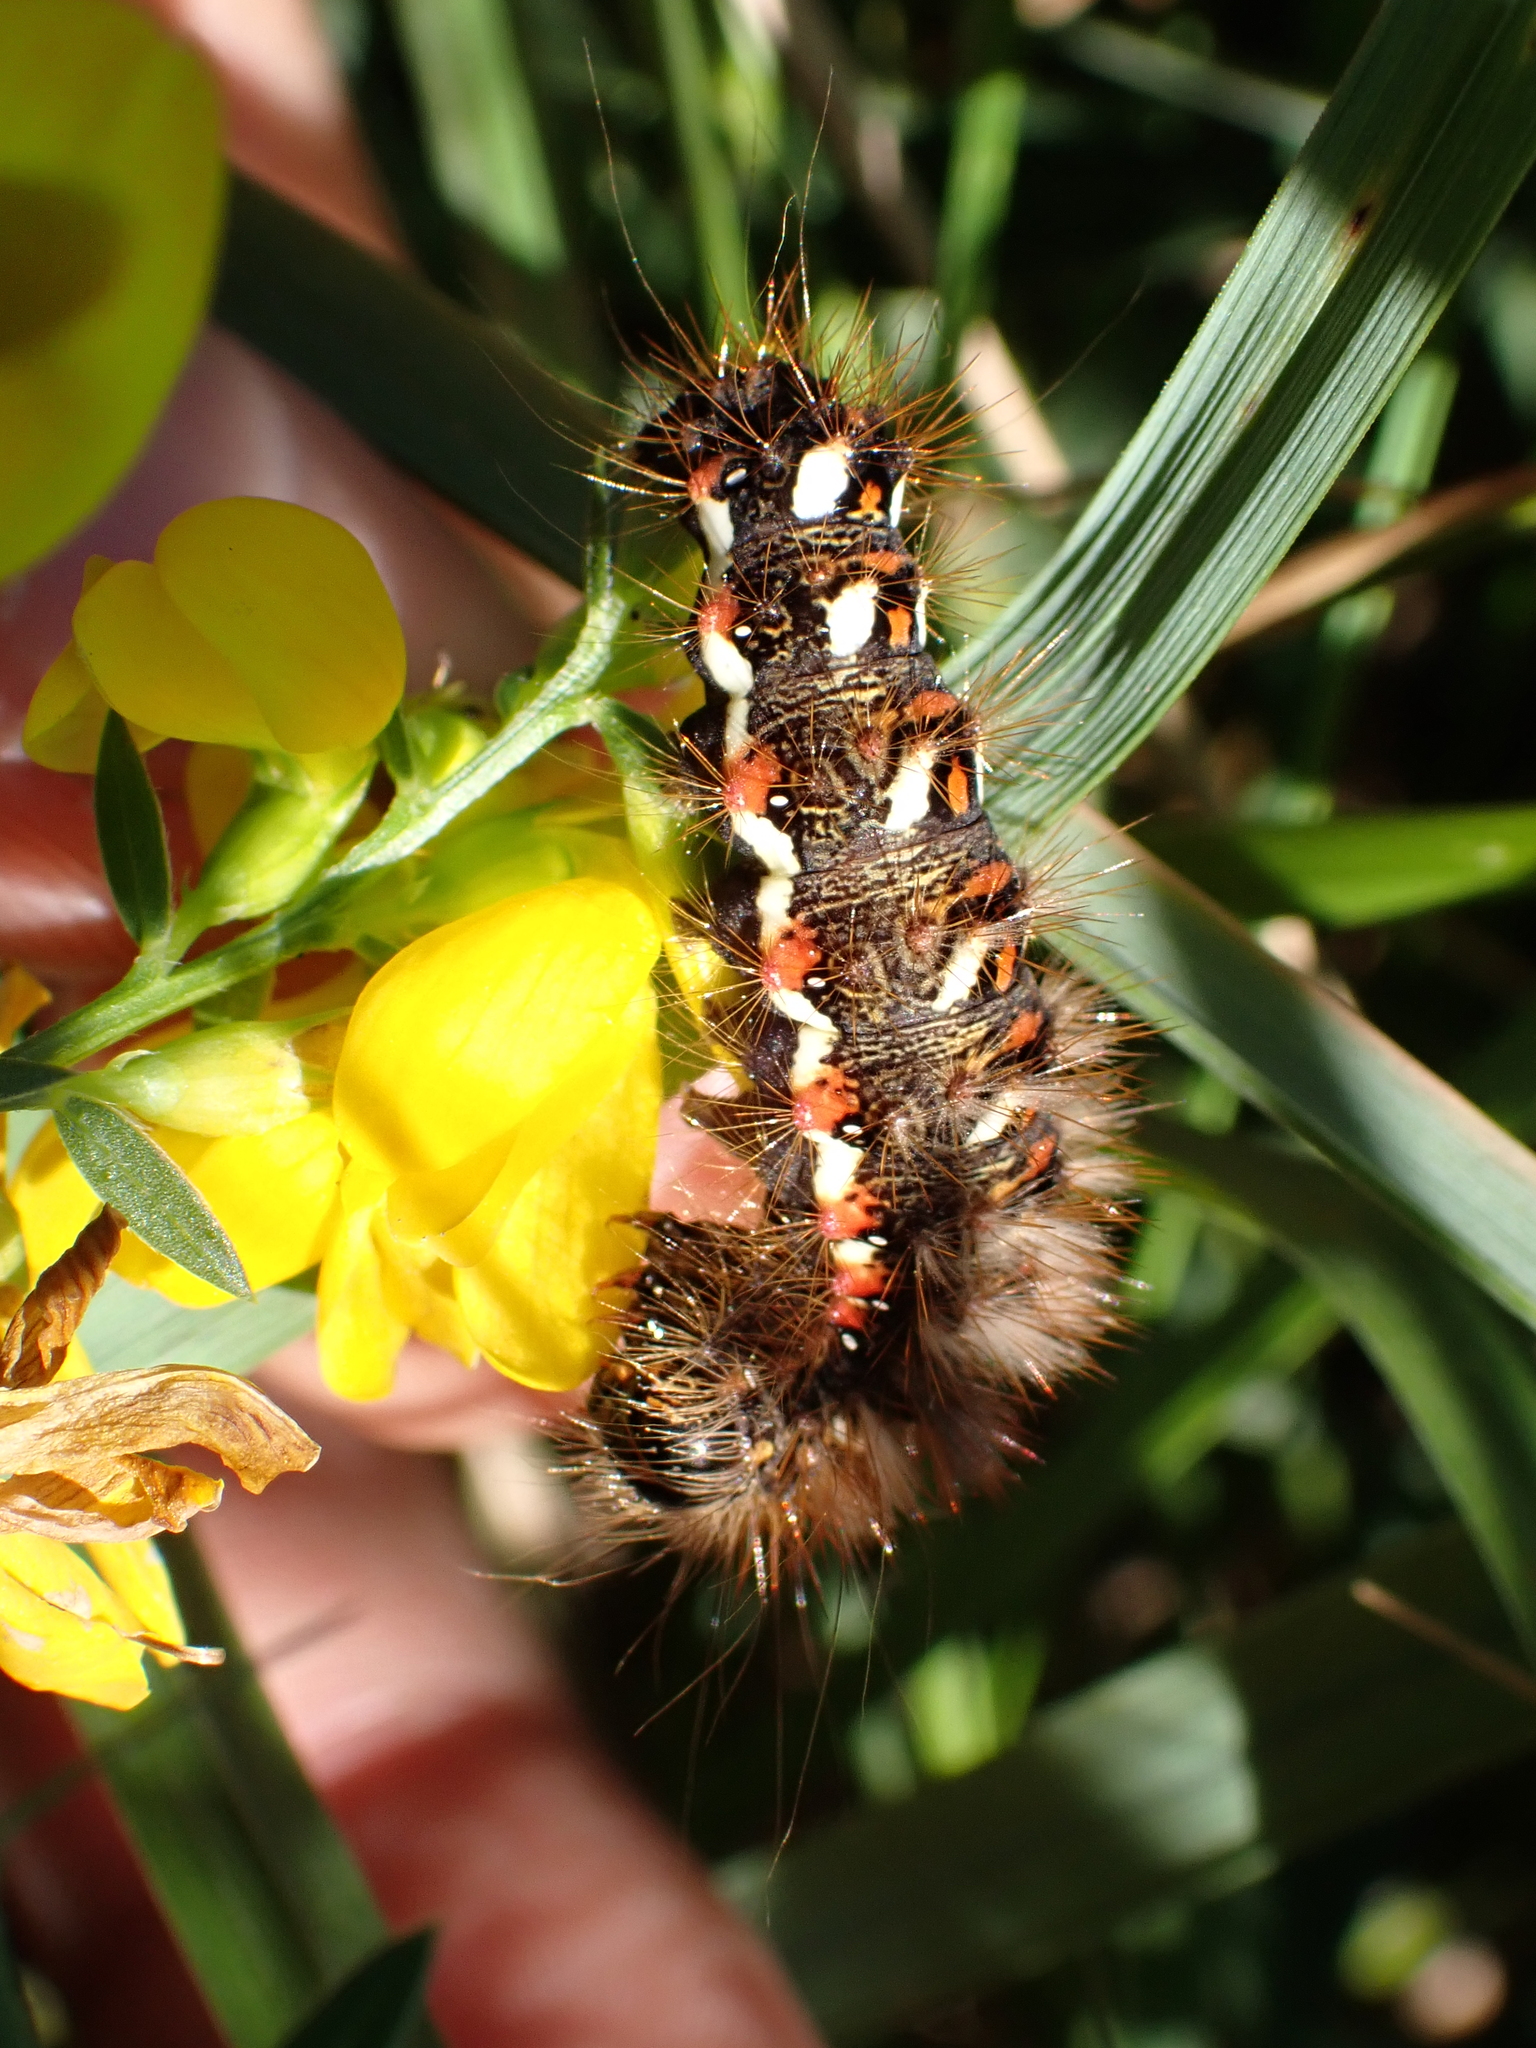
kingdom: Animalia
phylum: Arthropoda
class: Insecta
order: Lepidoptera
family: Noctuidae
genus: Acronicta
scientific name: Acronicta rumicis
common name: Knot grass
